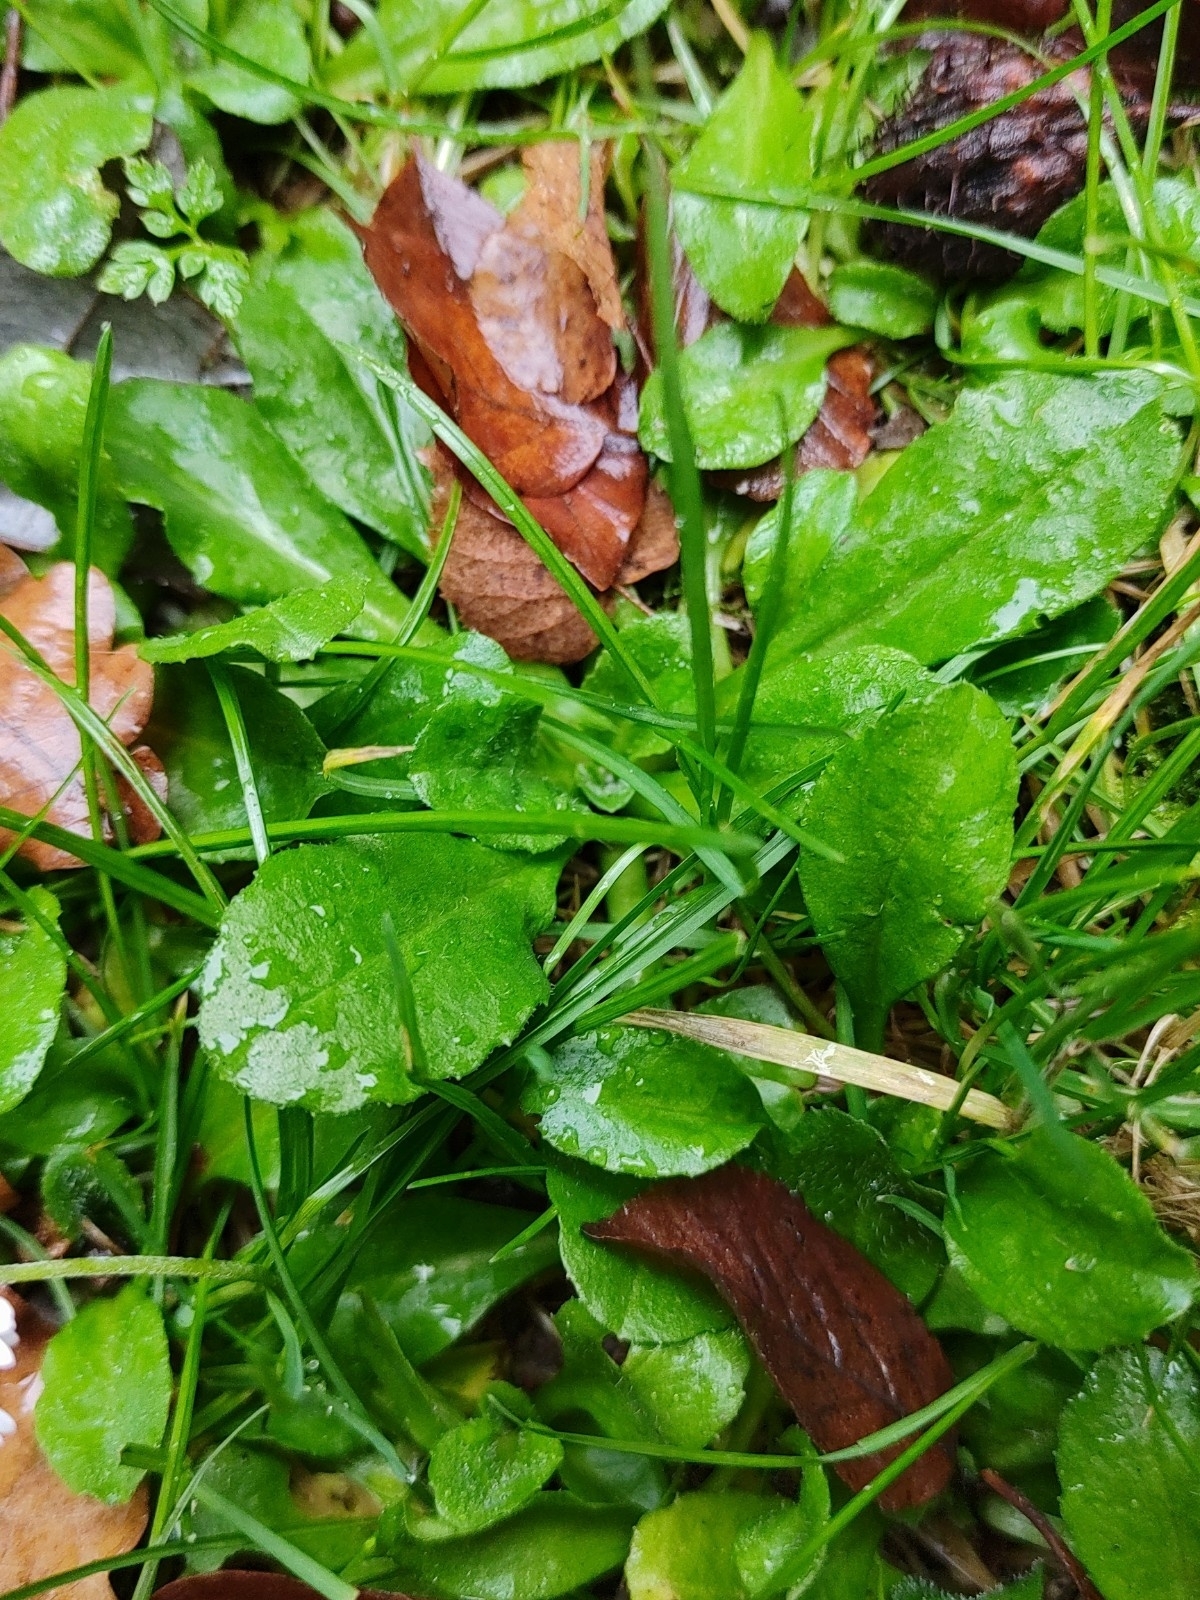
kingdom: Plantae
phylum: Tracheophyta
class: Magnoliopsida
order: Asterales
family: Asteraceae
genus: Bellis
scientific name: Bellis perennis
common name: Lawndaisy
